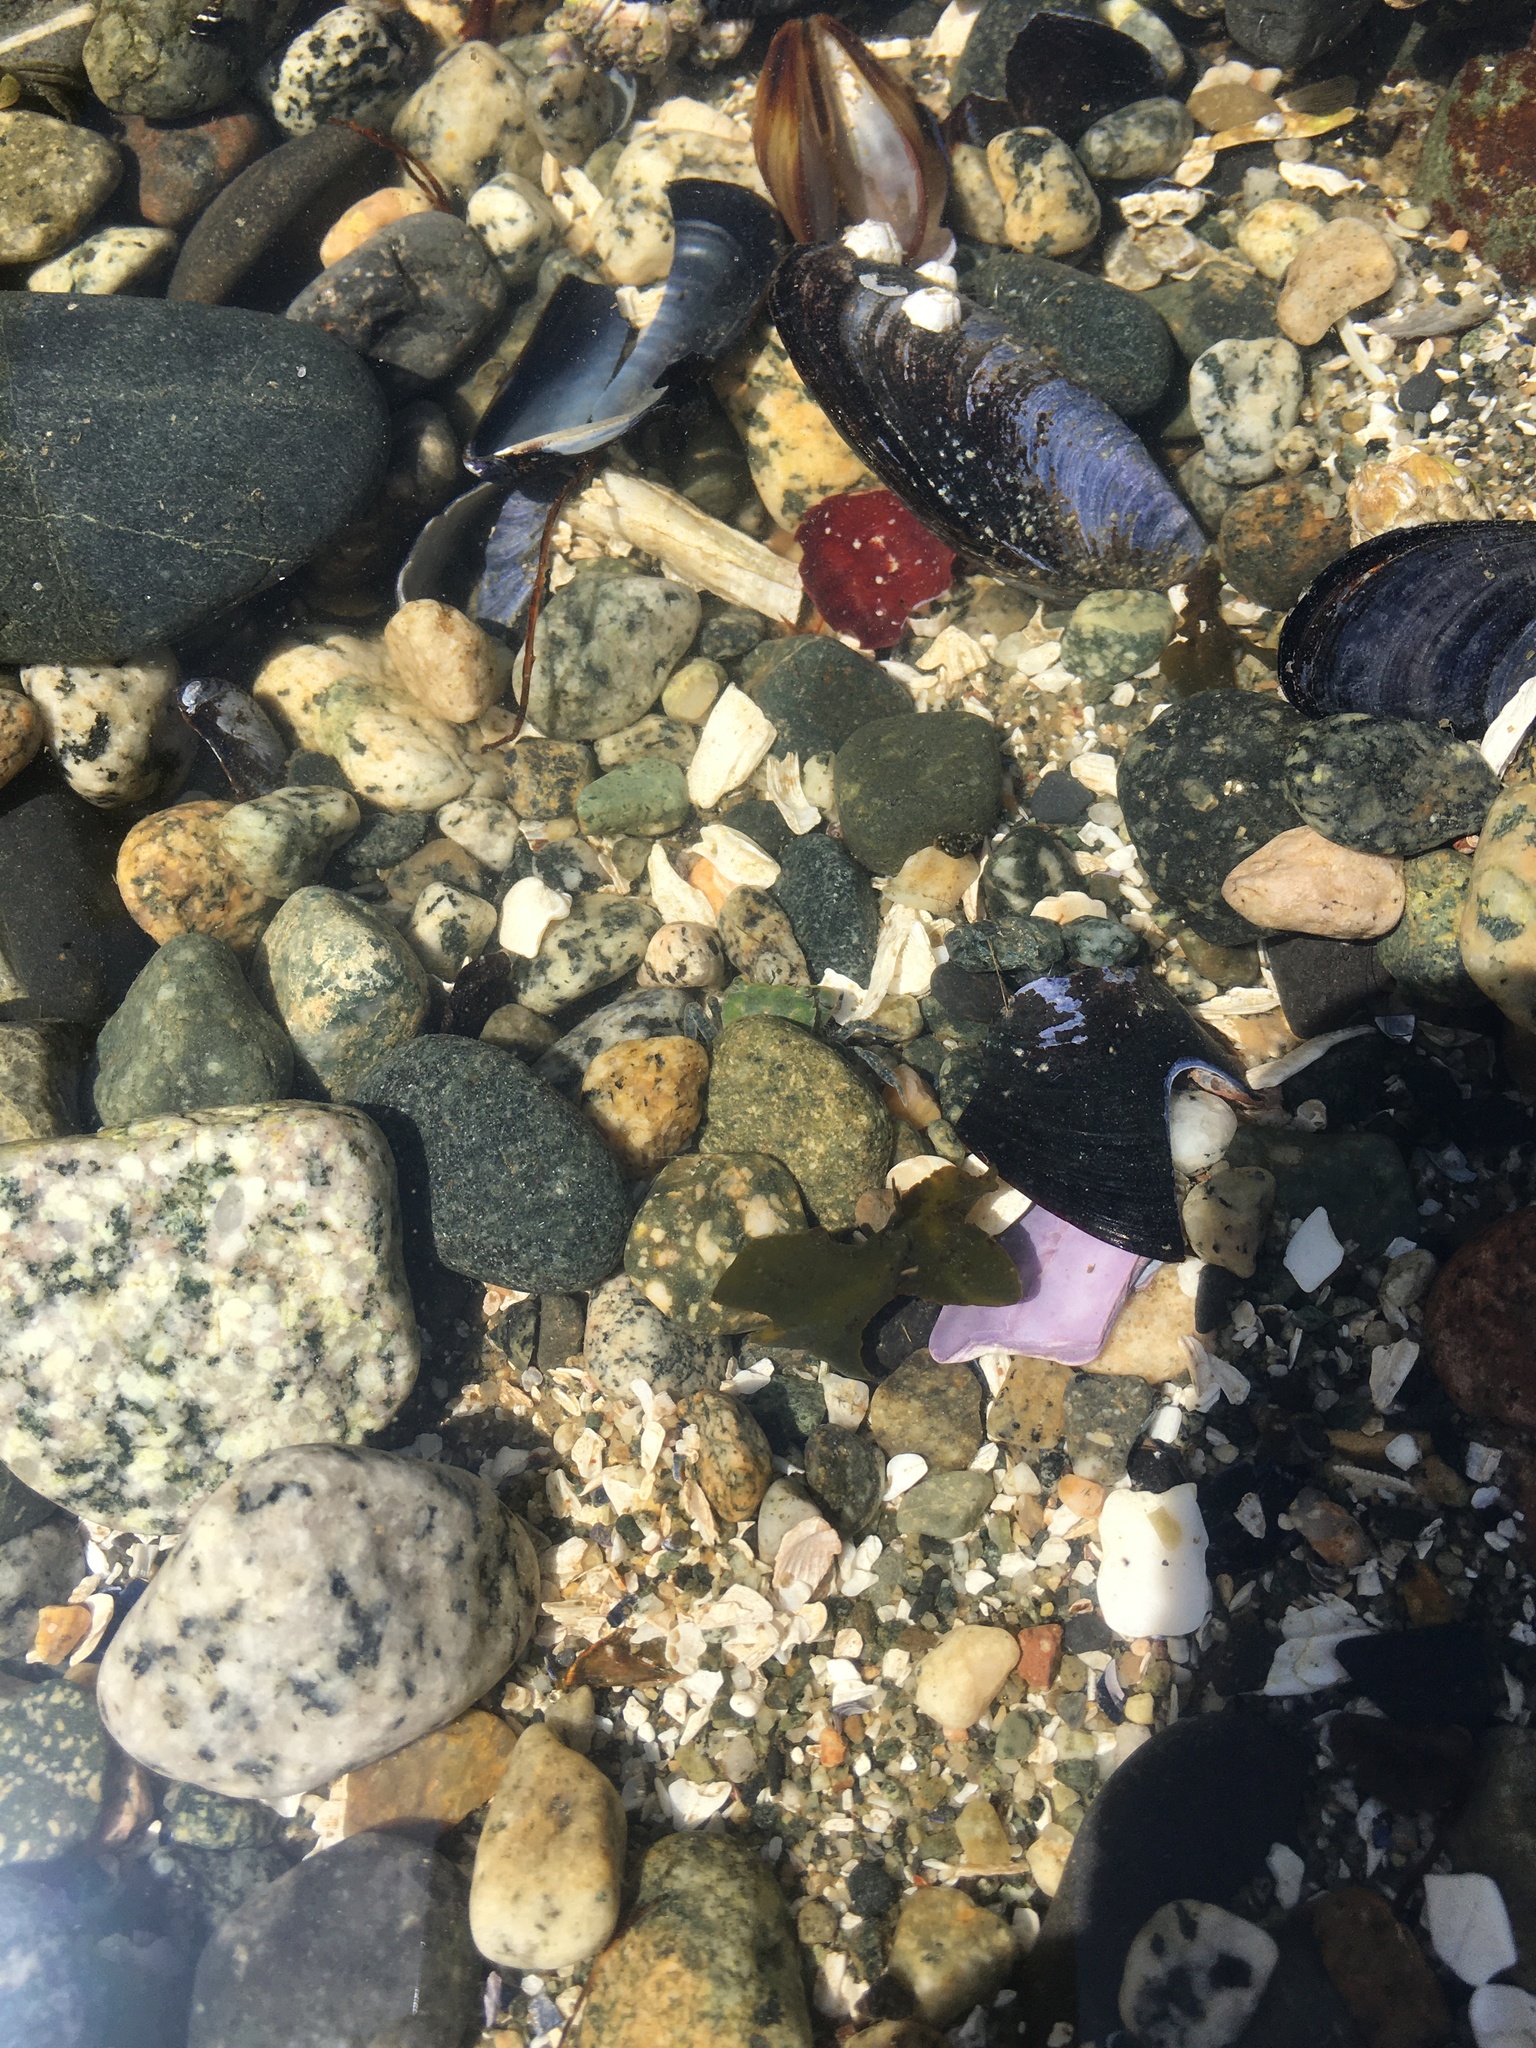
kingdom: Animalia
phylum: Arthropoda
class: Malacostraca
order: Decapoda
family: Varunidae
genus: Hemigrapsus
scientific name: Hemigrapsus oregonensis
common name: Yellow shore crab
